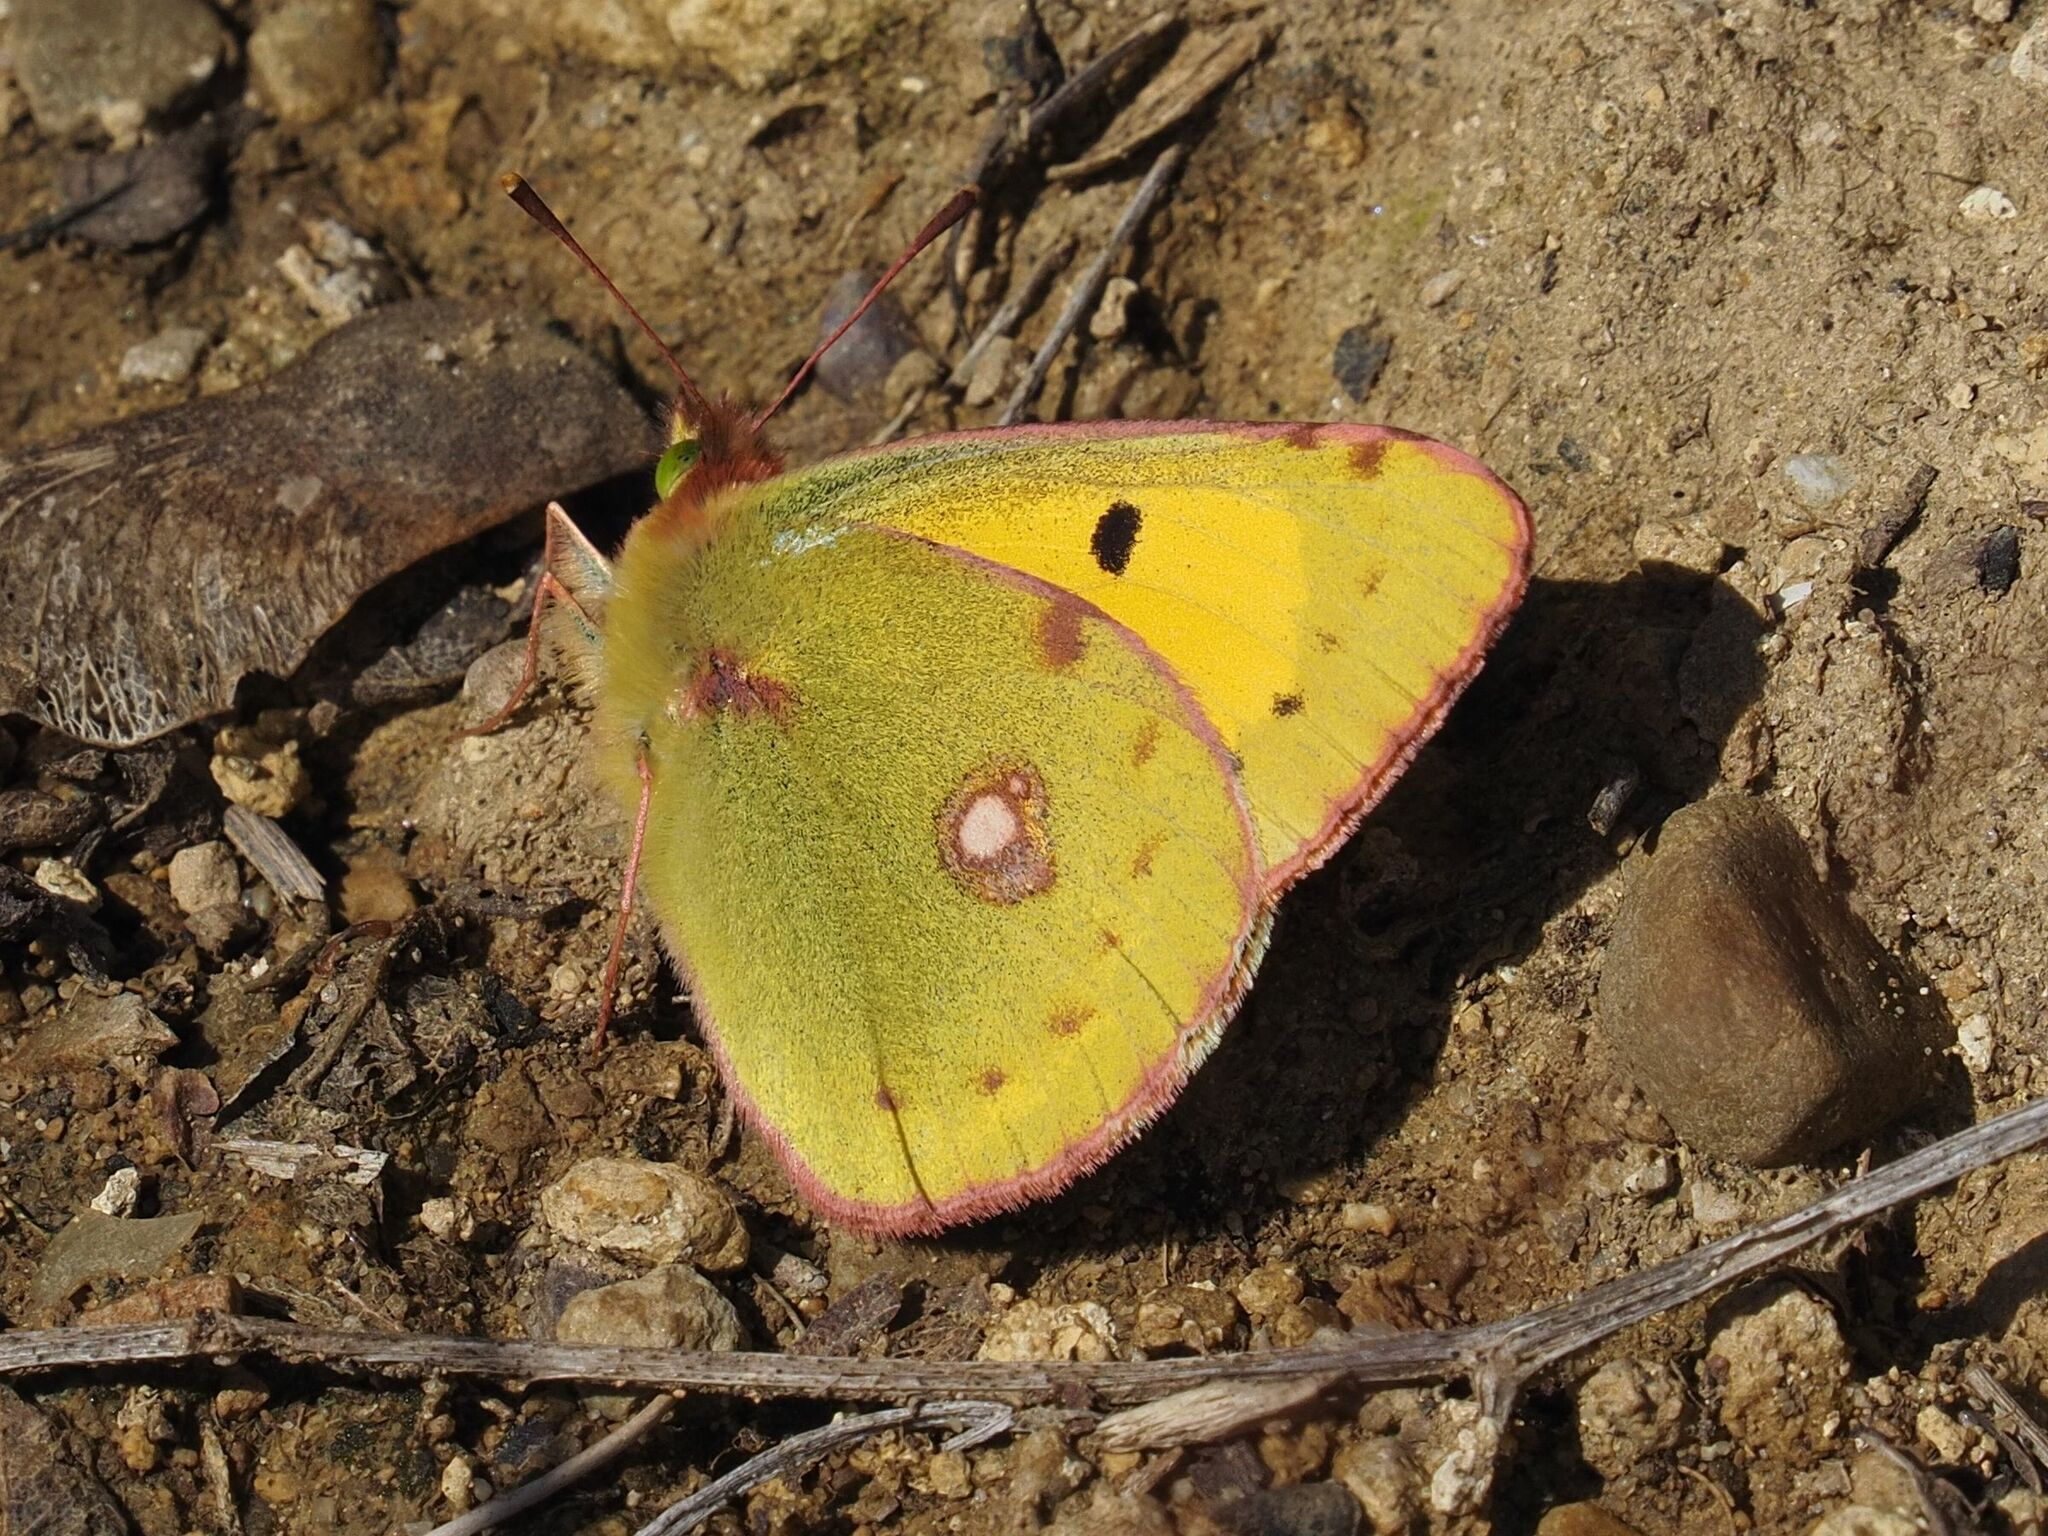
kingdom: Animalia
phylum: Arthropoda
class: Insecta
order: Lepidoptera
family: Pieridae
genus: Colias
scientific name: Colias croceus
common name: Clouded yellow
